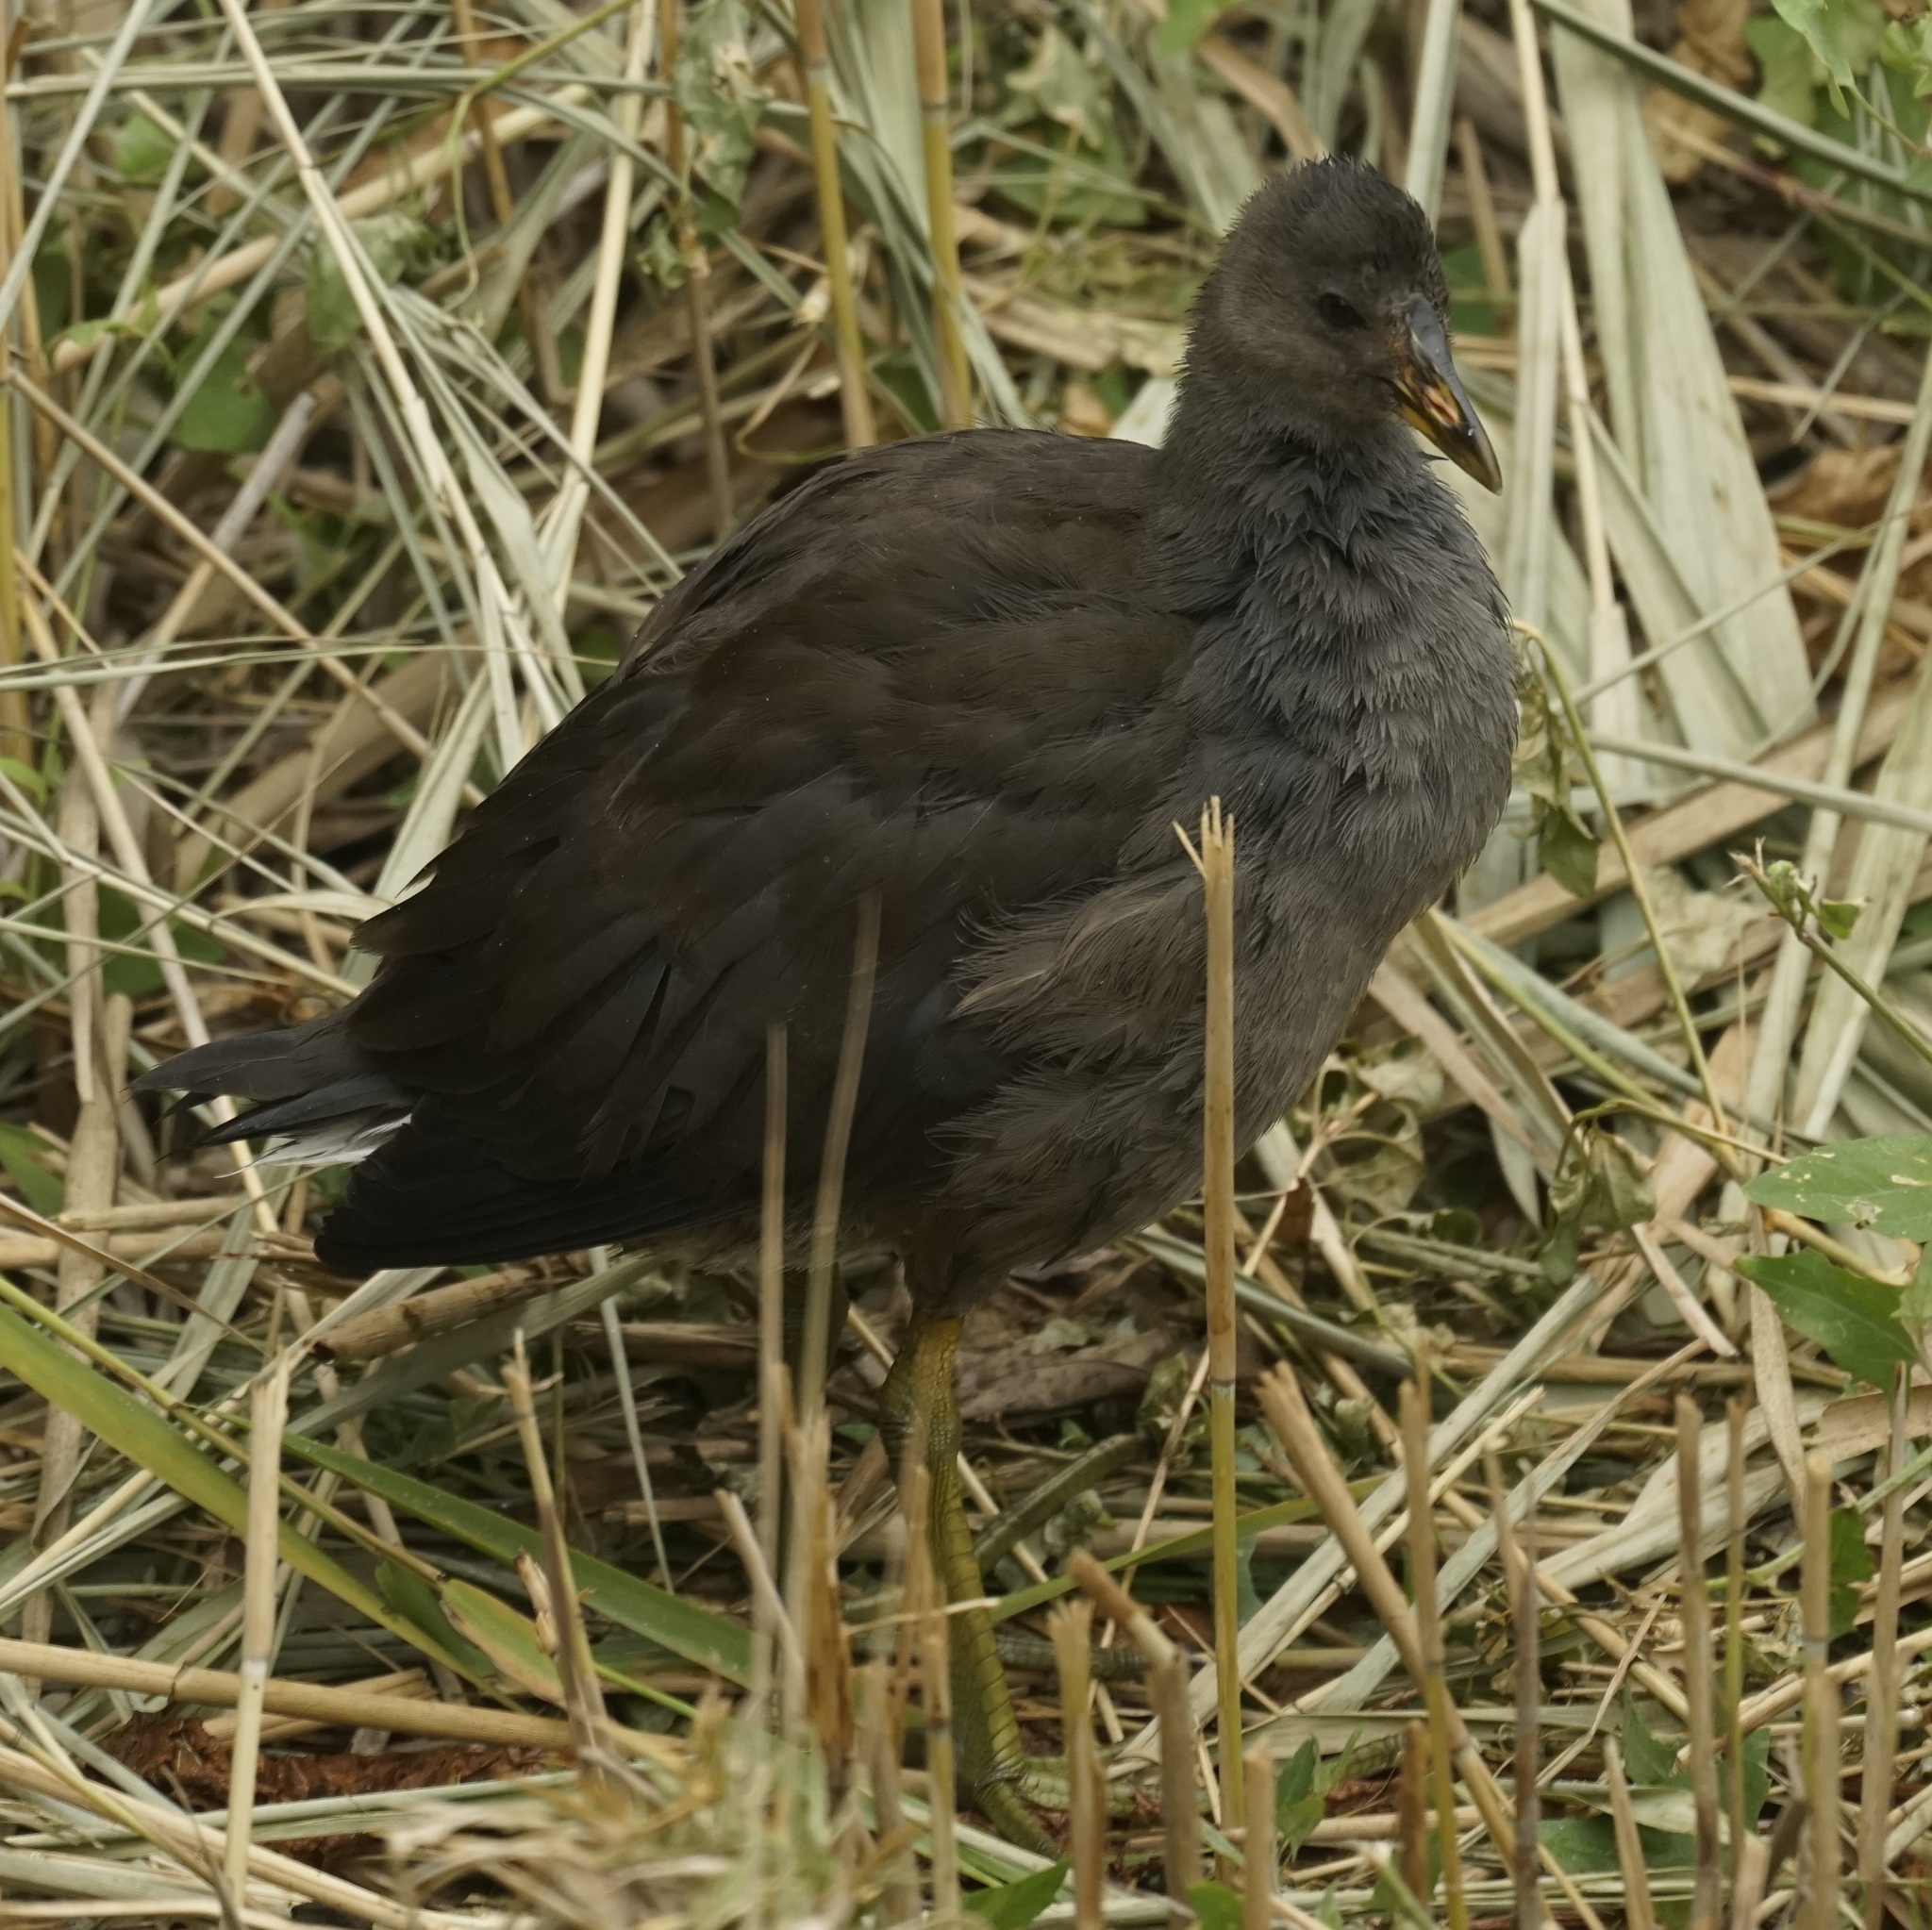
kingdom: Animalia
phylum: Chordata
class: Aves
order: Gruiformes
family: Rallidae
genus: Gallinula
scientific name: Gallinula tenebrosa
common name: Dusky moorhen
